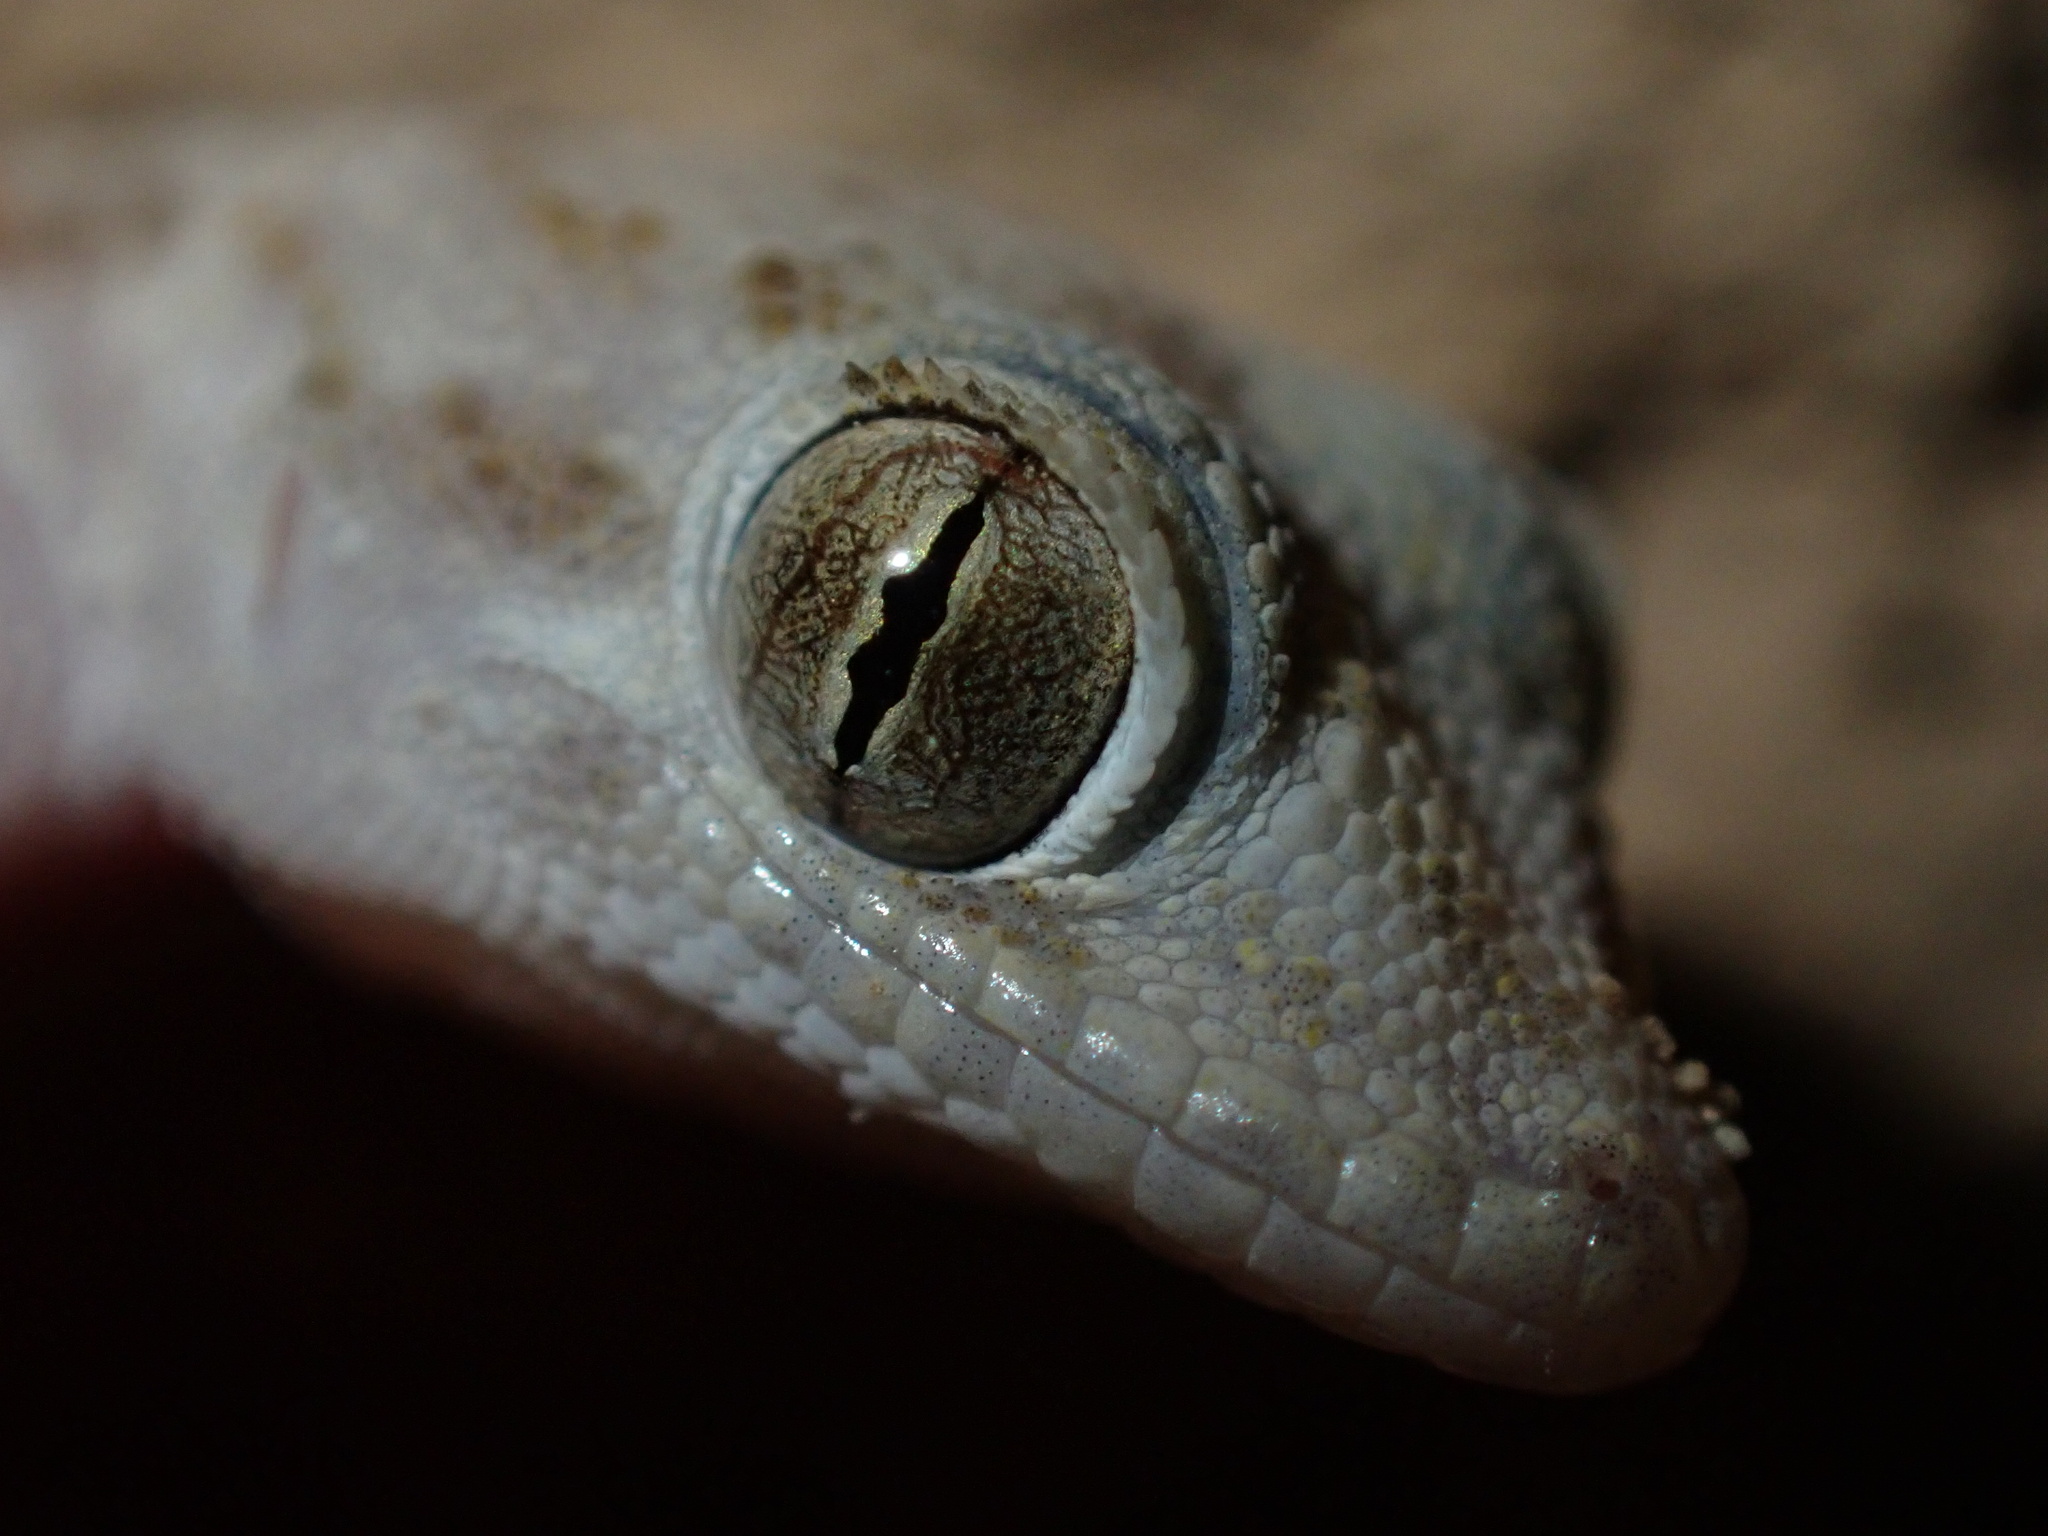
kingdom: Animalia
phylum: Chordata
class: Squamata
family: Gekkonidae
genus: Cyrtopodion
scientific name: Cyrtopodion scabrum
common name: Rough-tailed gecko
